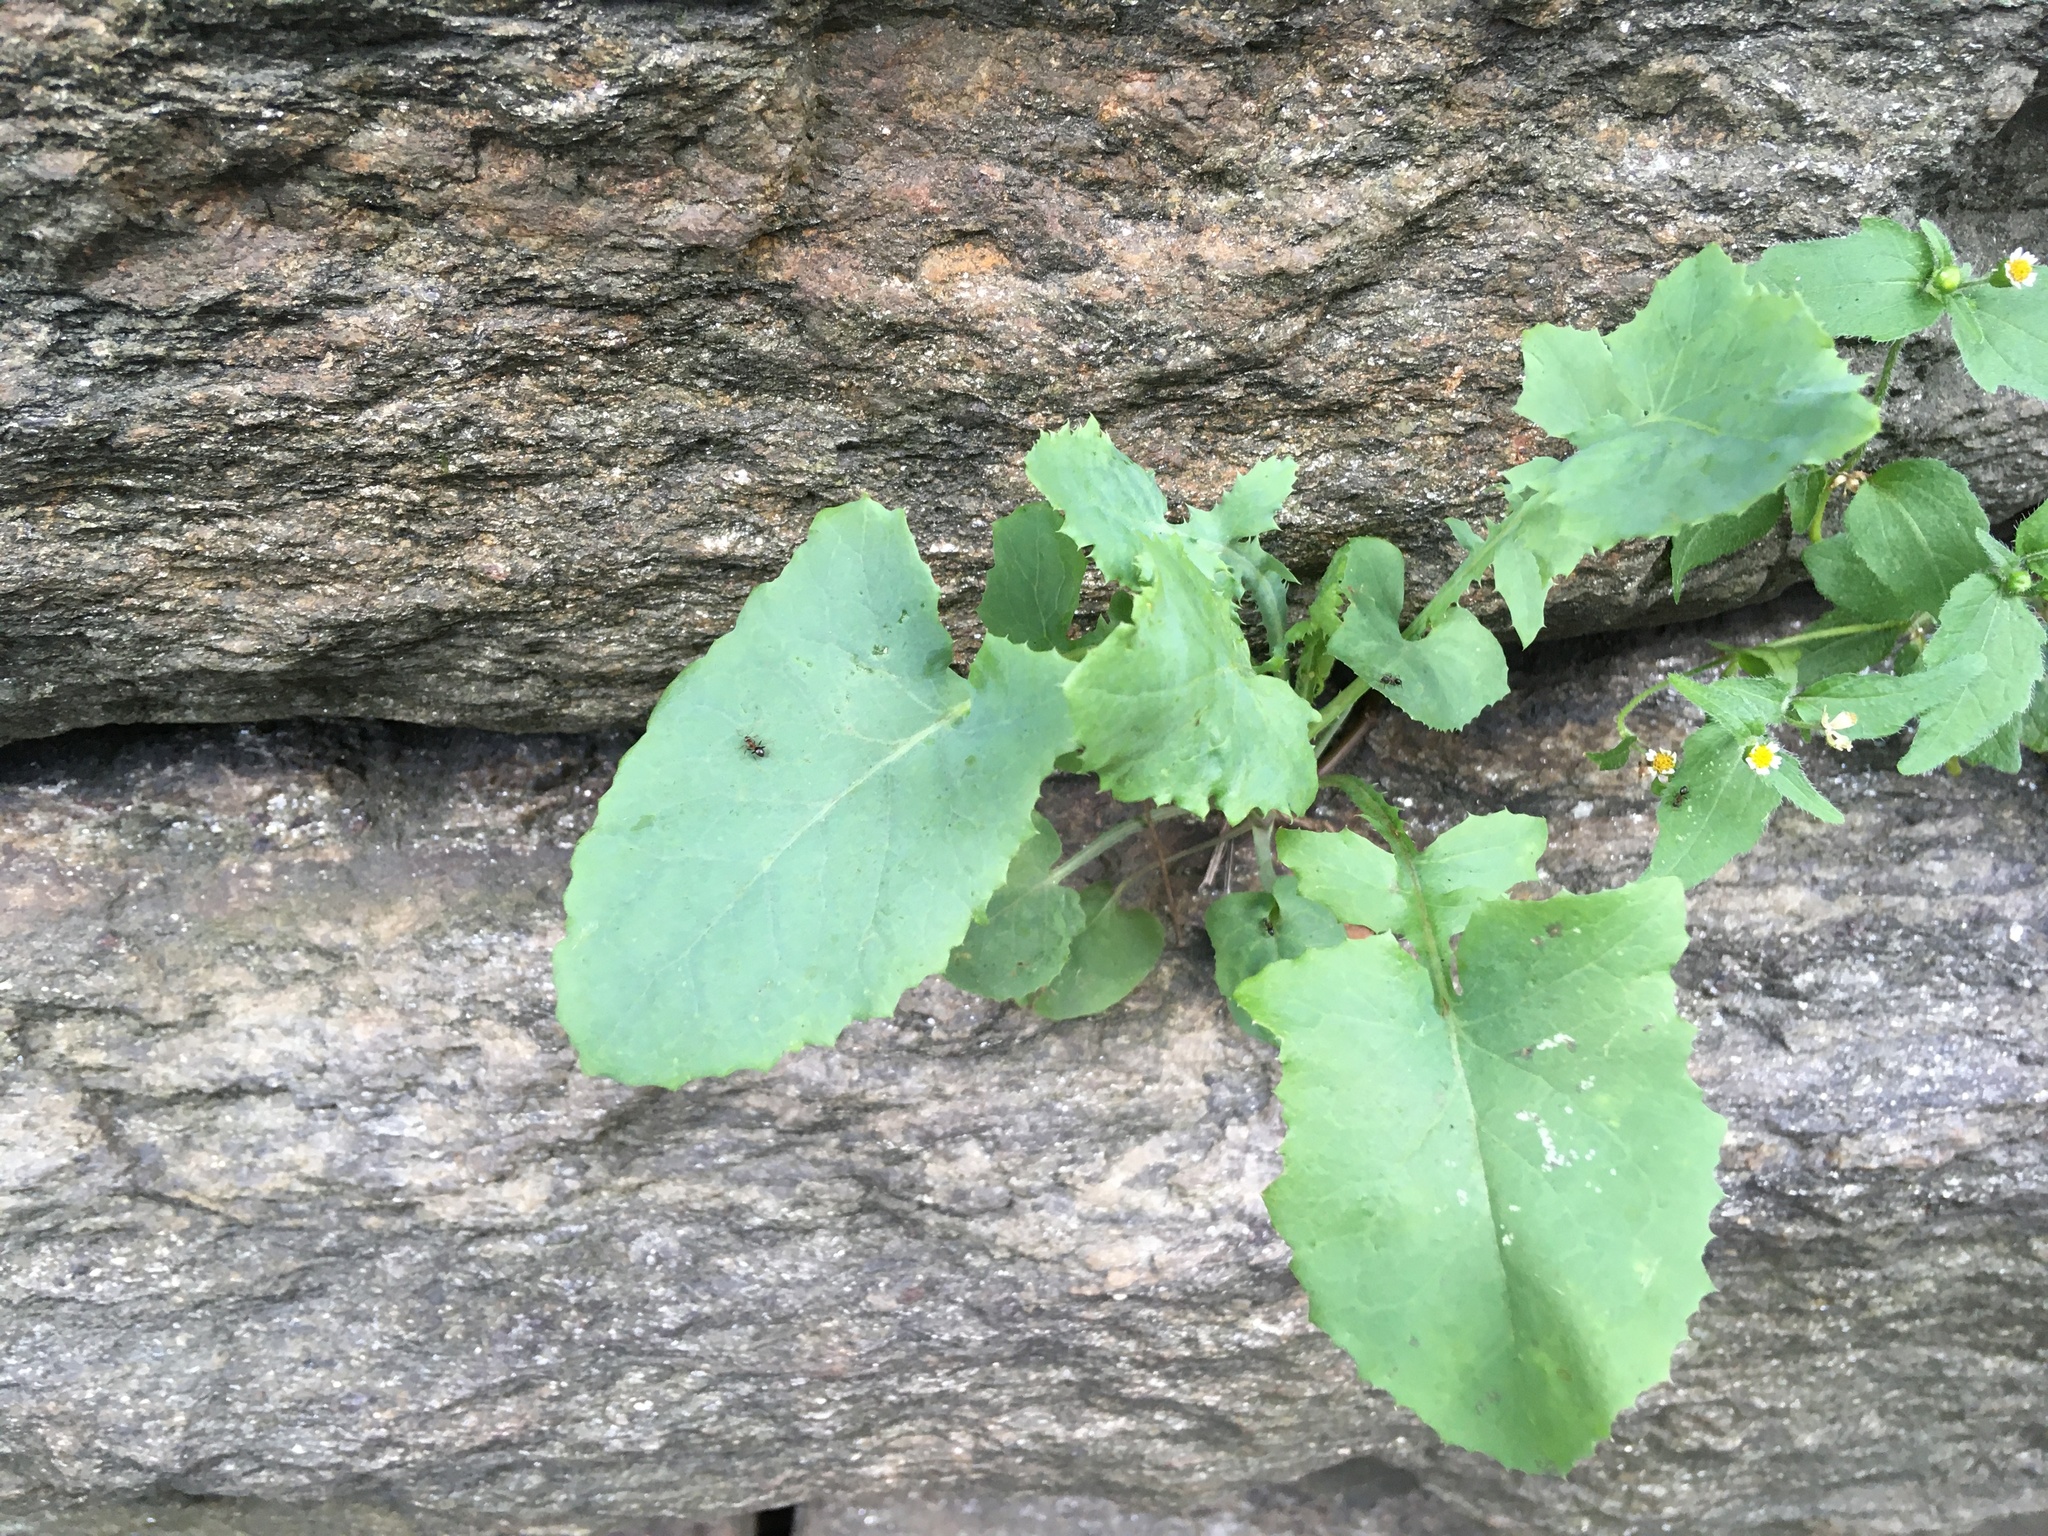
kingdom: Plantae
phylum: Tracheophyta
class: Magnoliopsida
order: Asterales
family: Asteraceae
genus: Sonchus
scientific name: Sonchus oleraceus
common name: Common sowthistle
